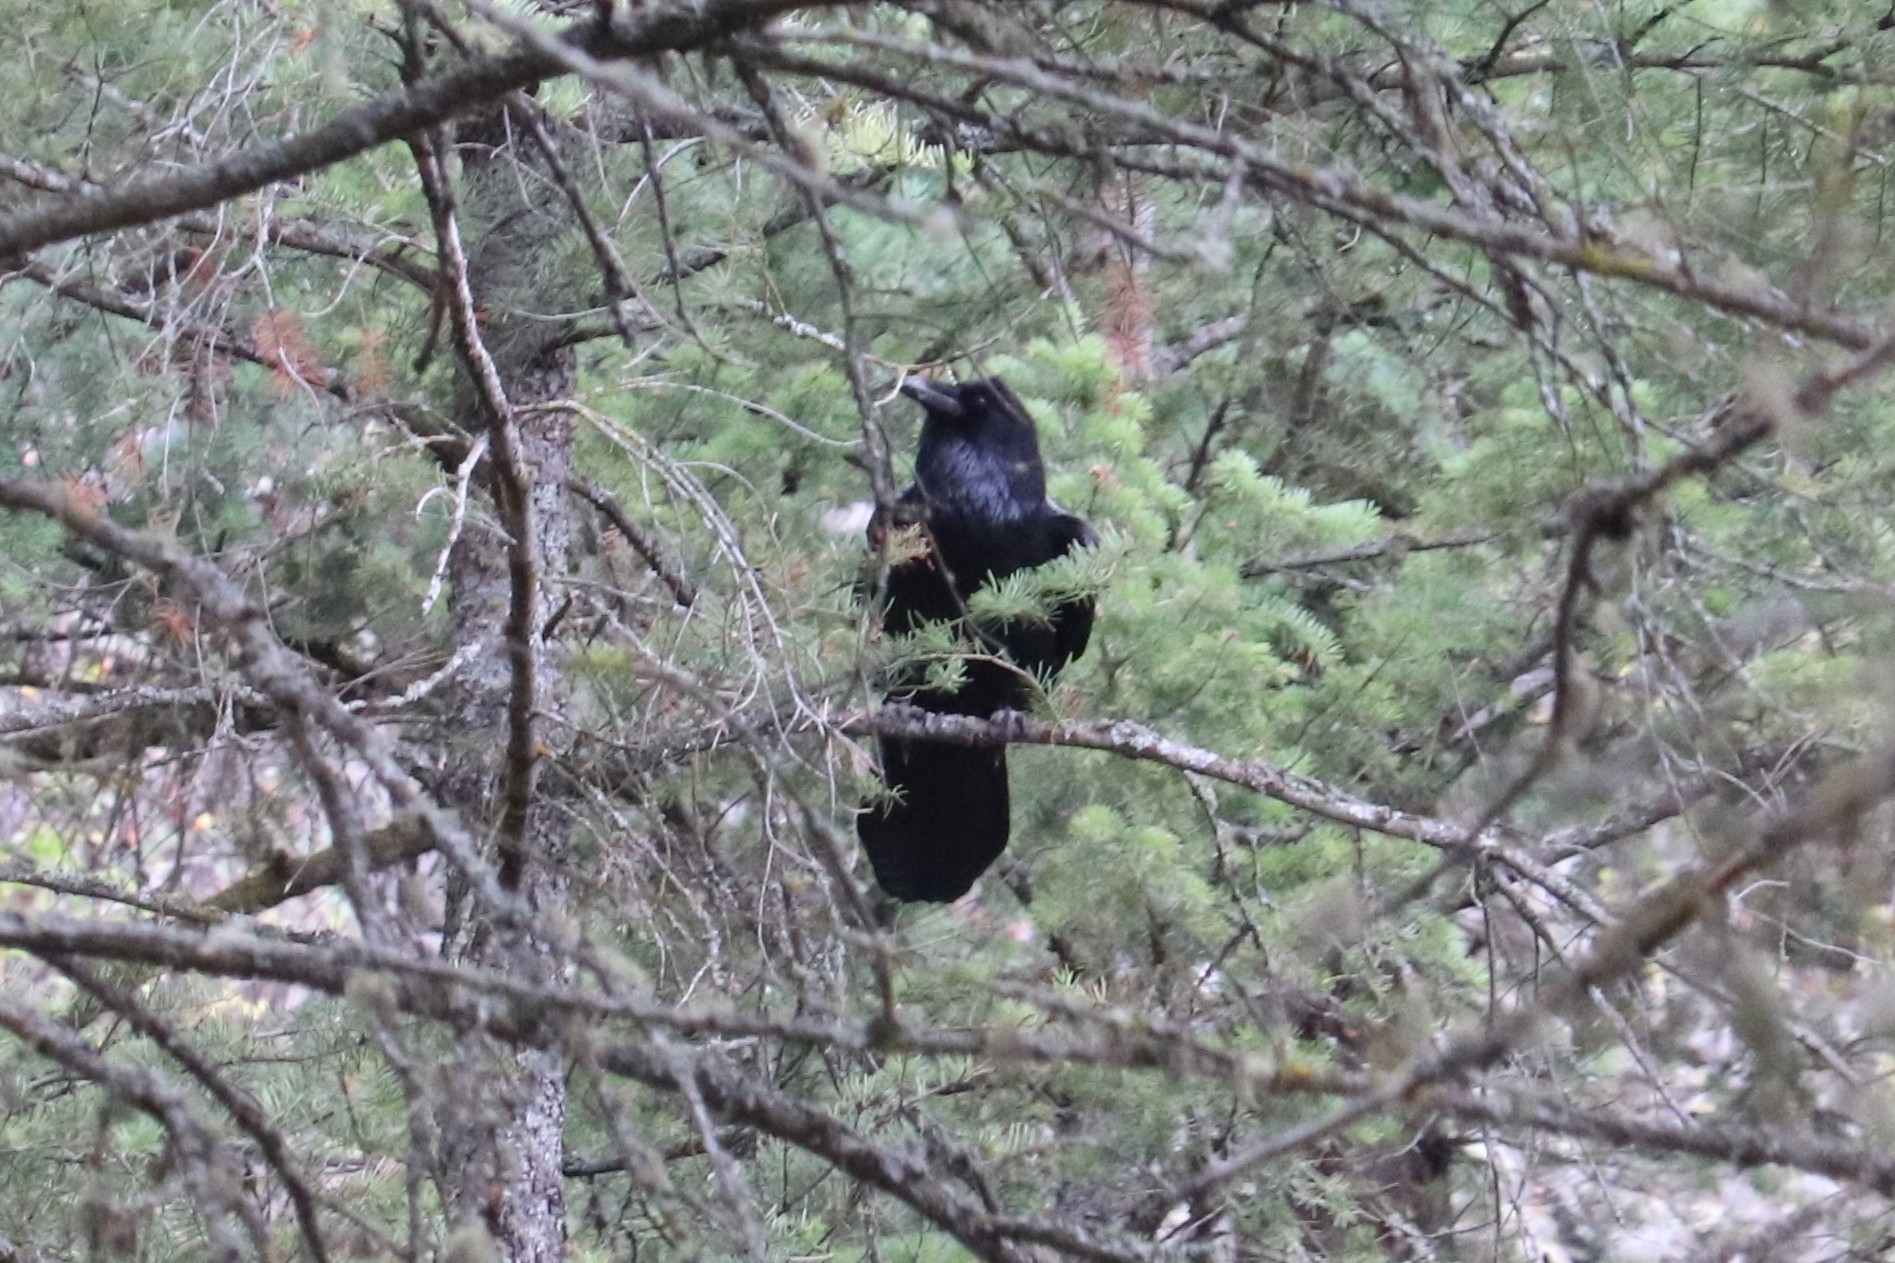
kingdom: Animalia
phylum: Chordata
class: Aves
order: Passeriformes
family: Corvidae
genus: Corvus
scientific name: Corvus corax
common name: Common raven
